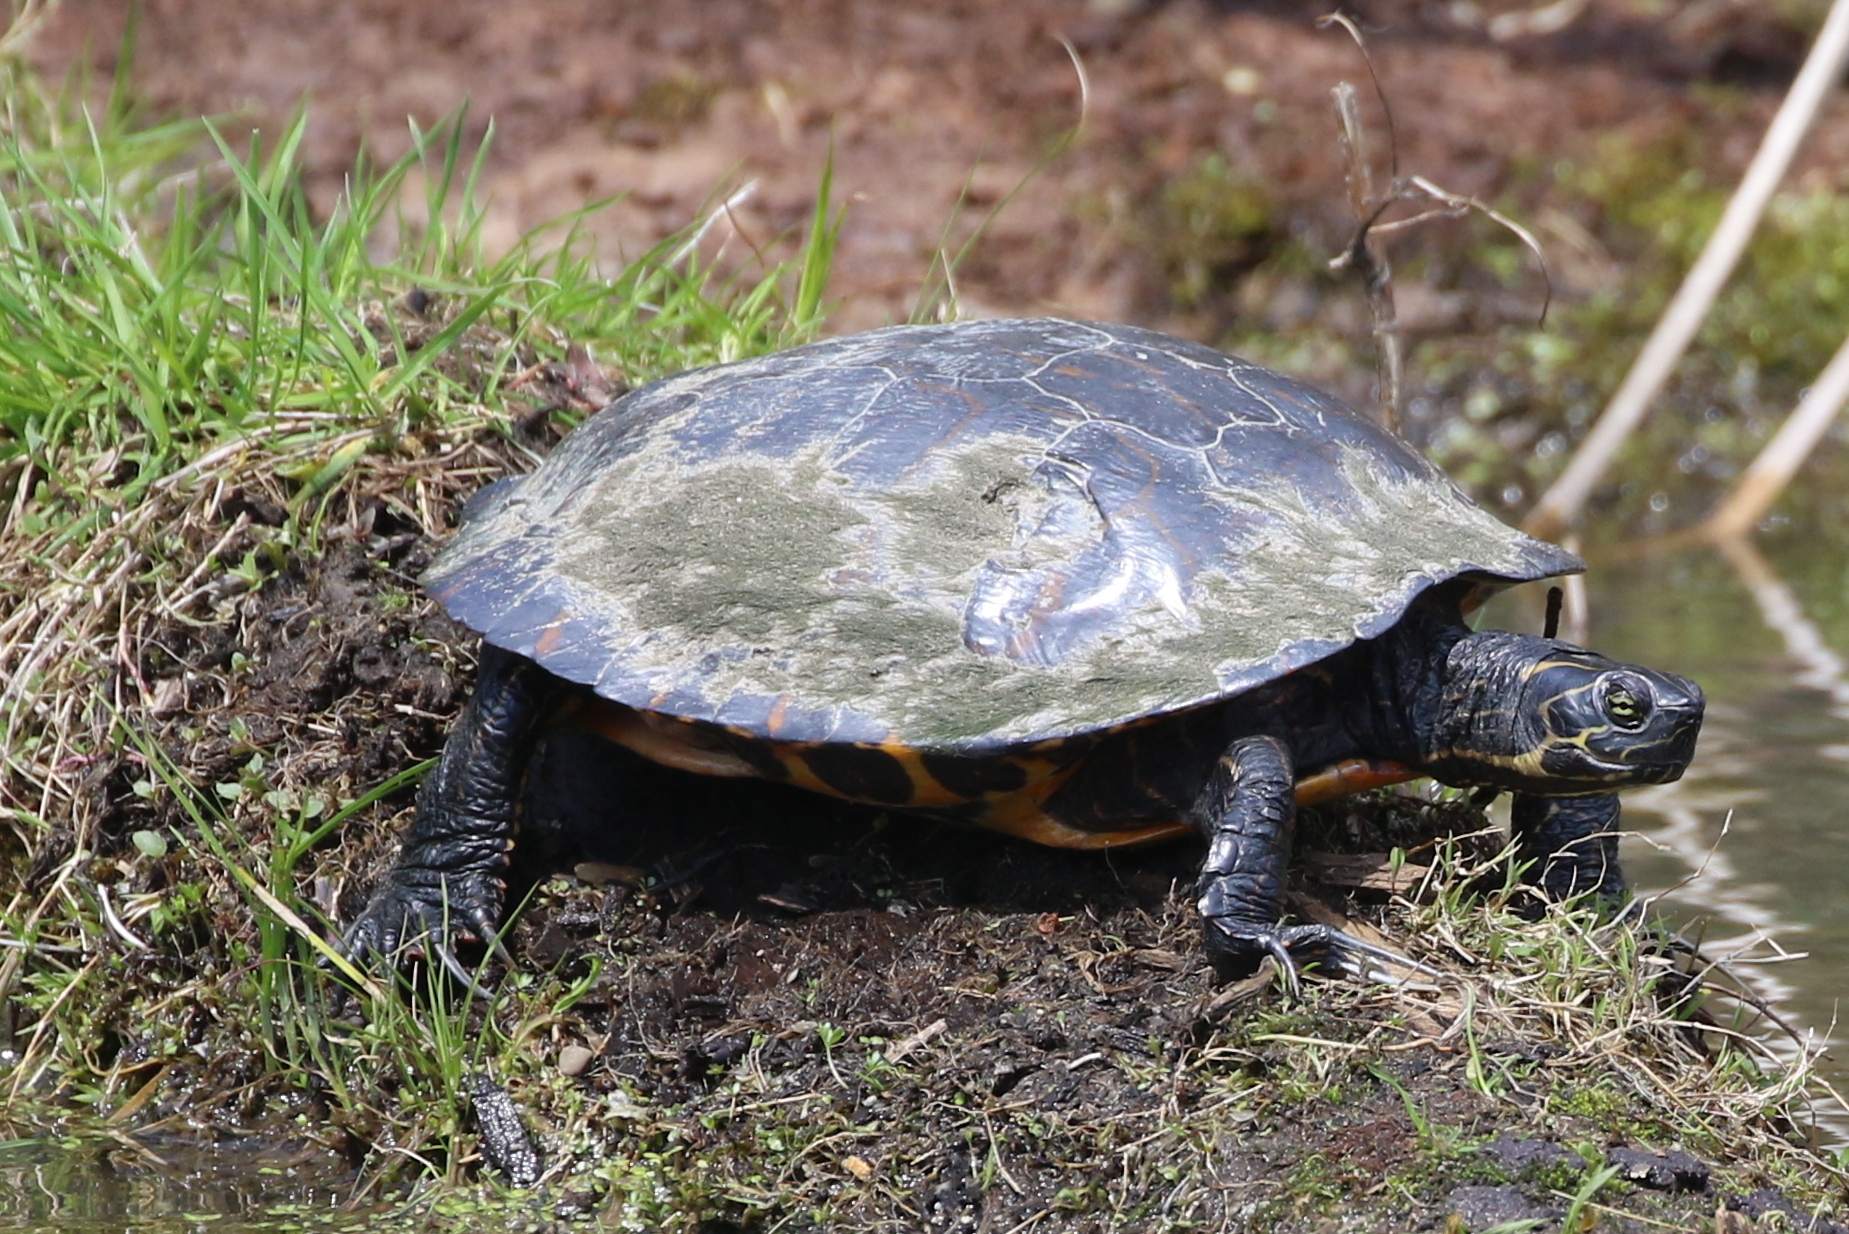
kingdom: Animalia
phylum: Chordata
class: Testudines
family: Emydidae
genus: Pseudemys
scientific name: Pseudemys concinna
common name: Eastern river cooter
